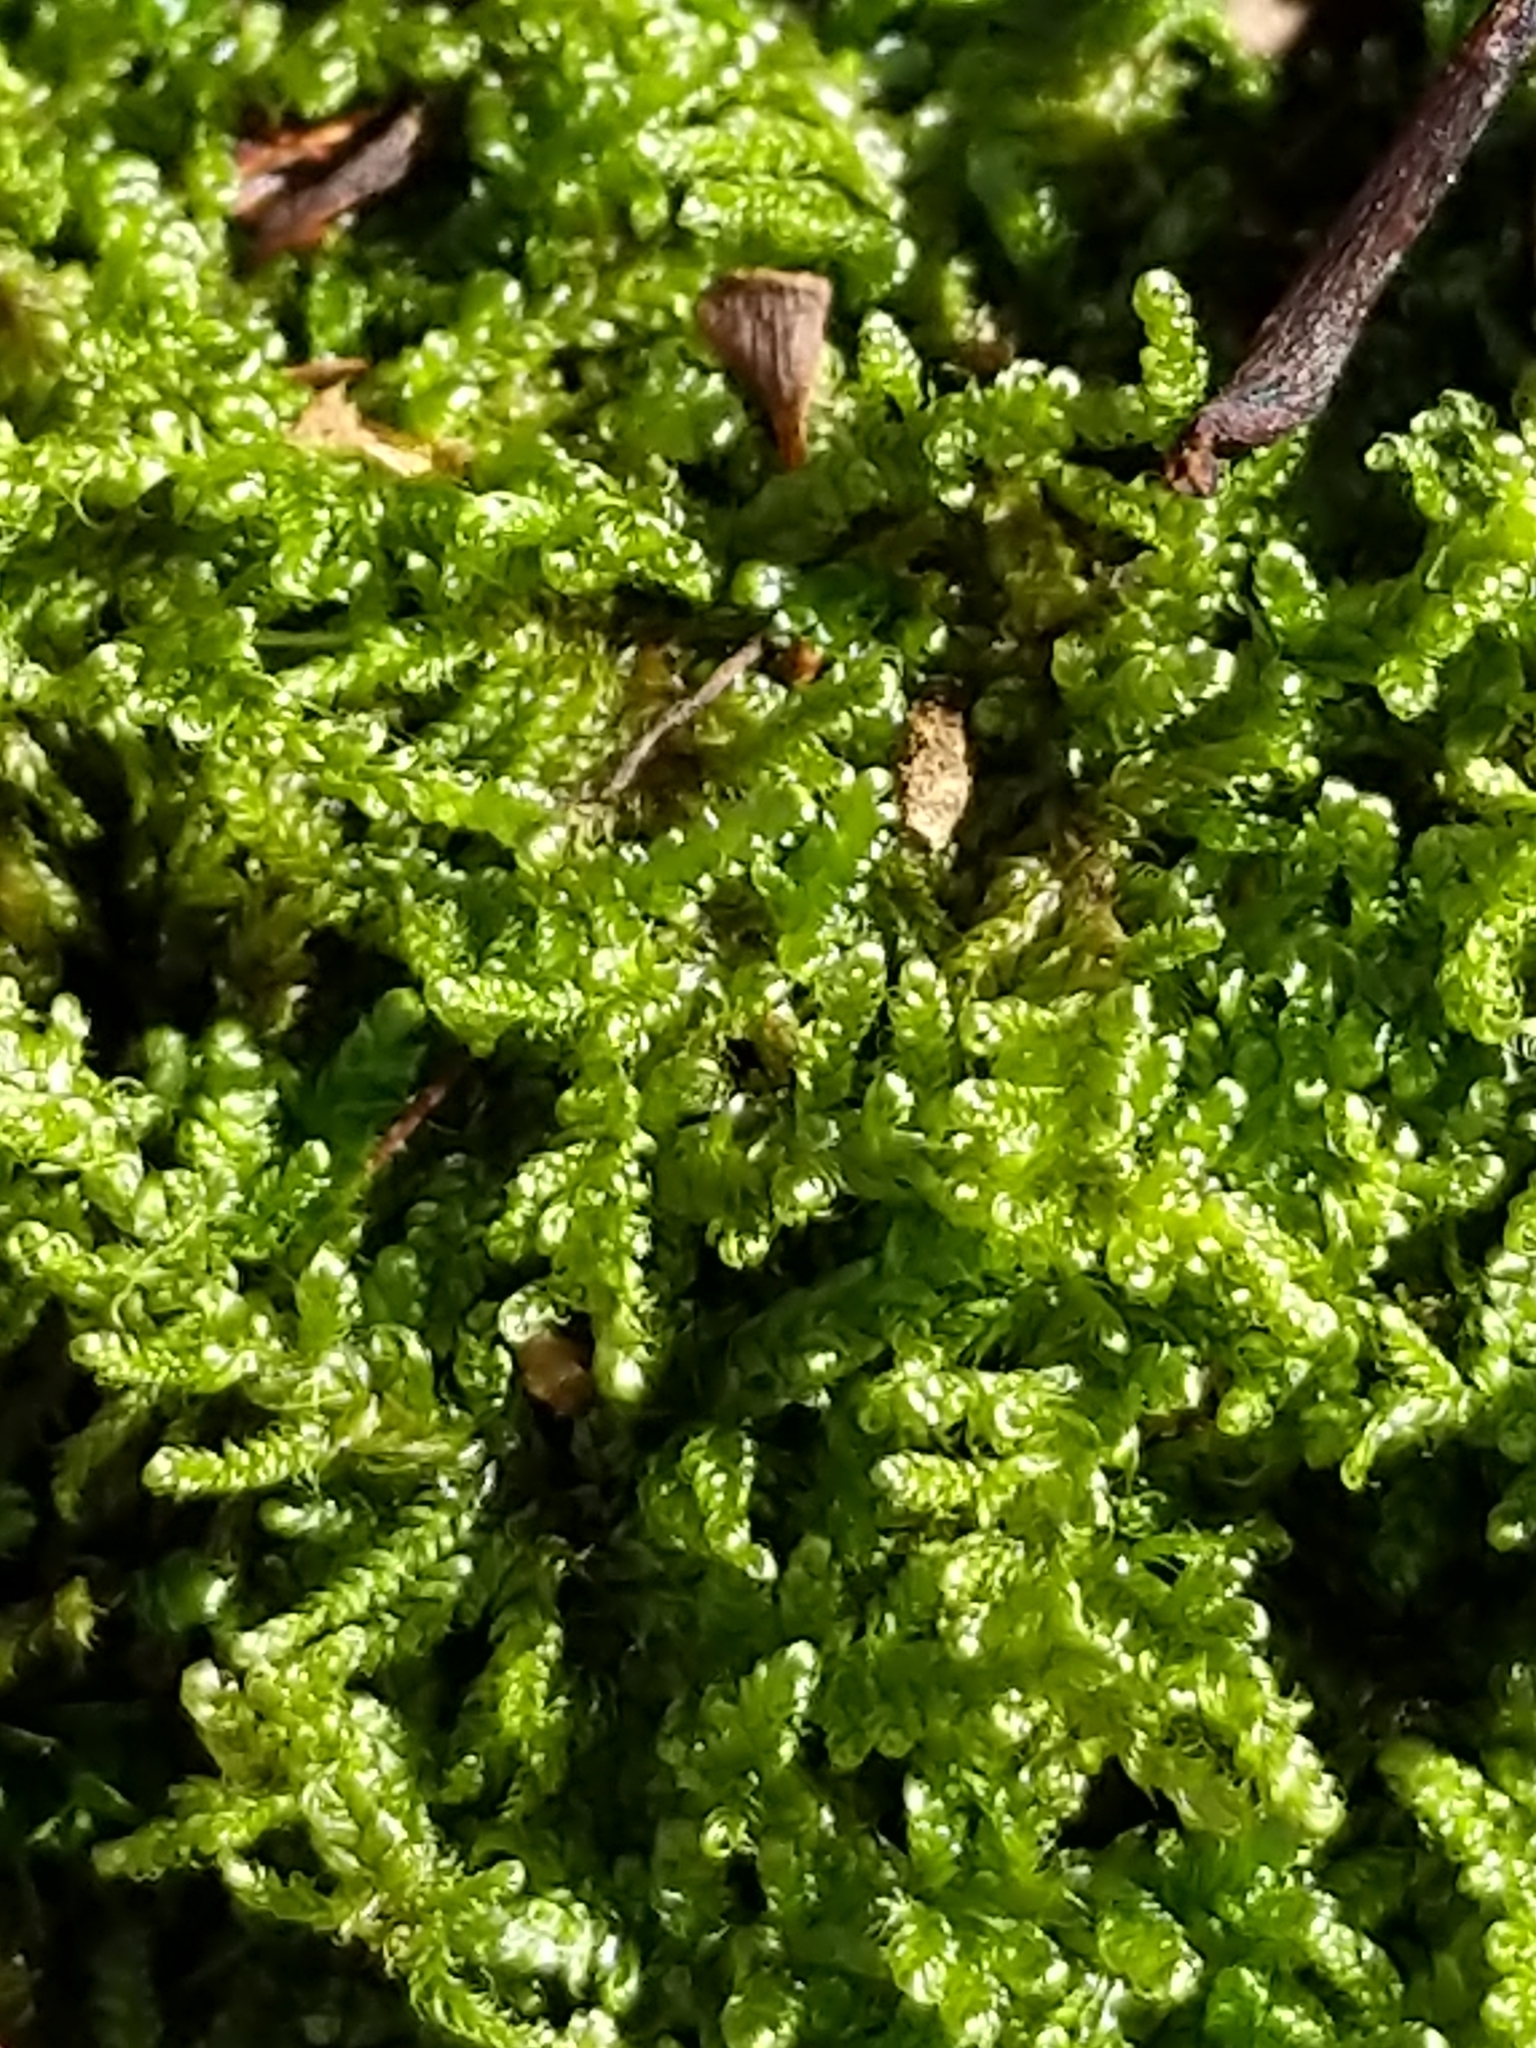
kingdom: Plantae
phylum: Bryophyta
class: Bryopsida
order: Hypnales
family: Callicladiaceae
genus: Callicladium
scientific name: Callicladium imponens
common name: Brocade moss
